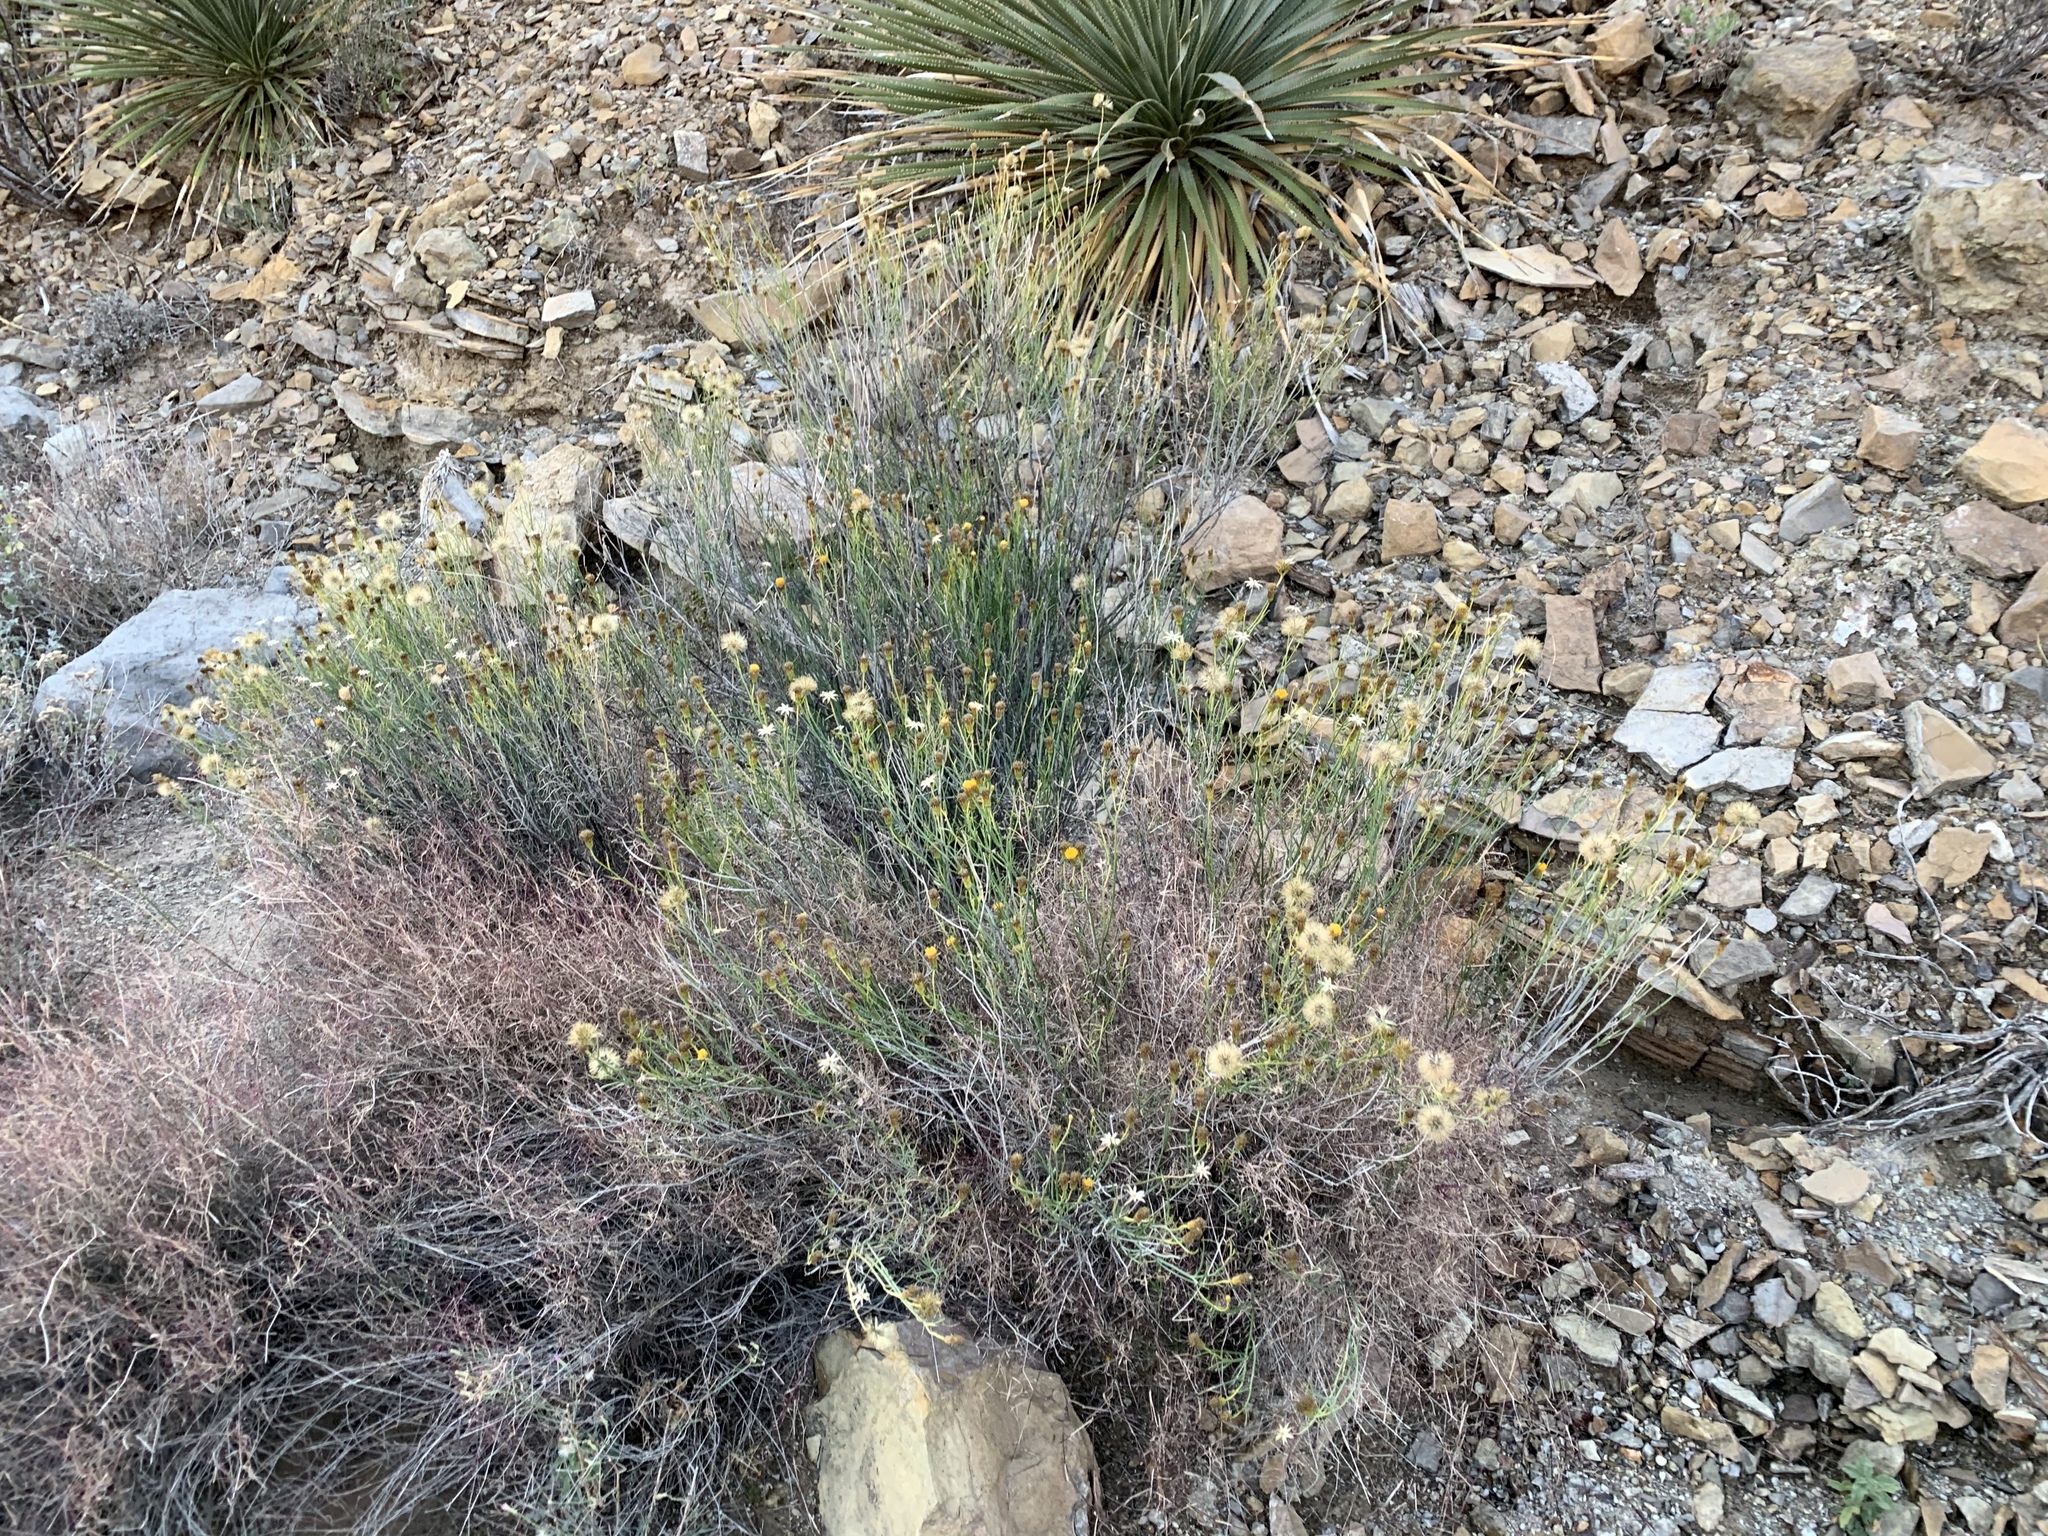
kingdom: Plantae
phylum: Tracheophyta
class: Magnoliopsida
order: Asterales
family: Asteraceae
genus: Porophyllum
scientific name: Porophyllum scoparium
